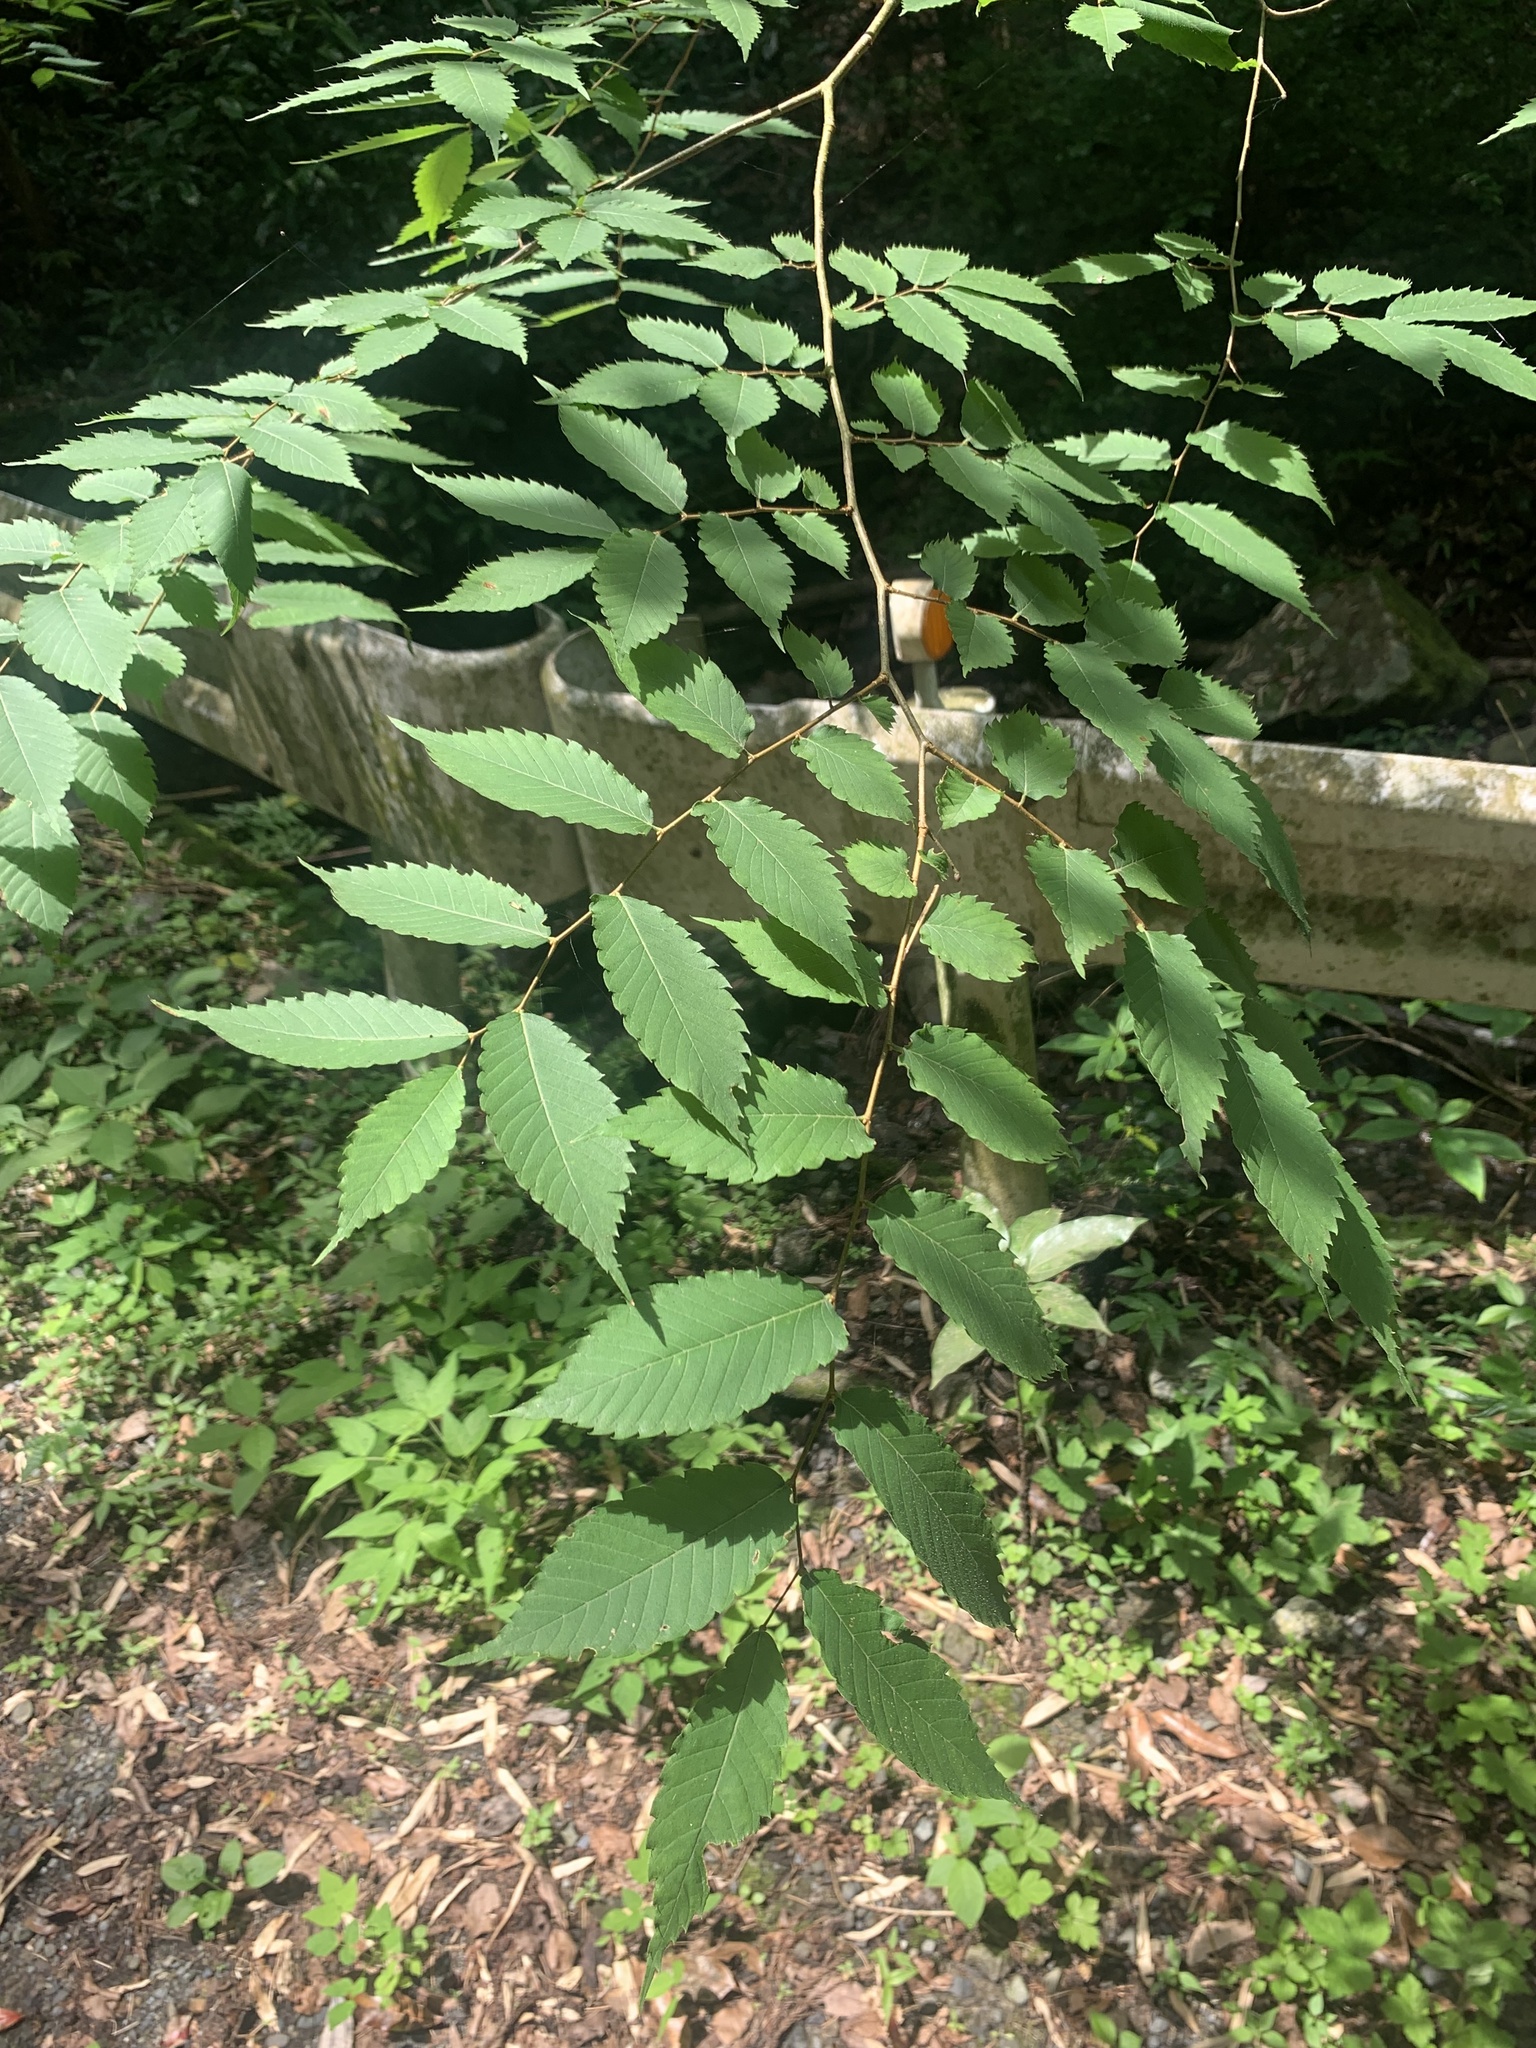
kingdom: Plantae
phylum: Tracheophyta
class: Magnoliopsida
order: Rosales
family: Ulmaceae
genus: Zelkova
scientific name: Zelkova serrata
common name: Japanese zelkova
